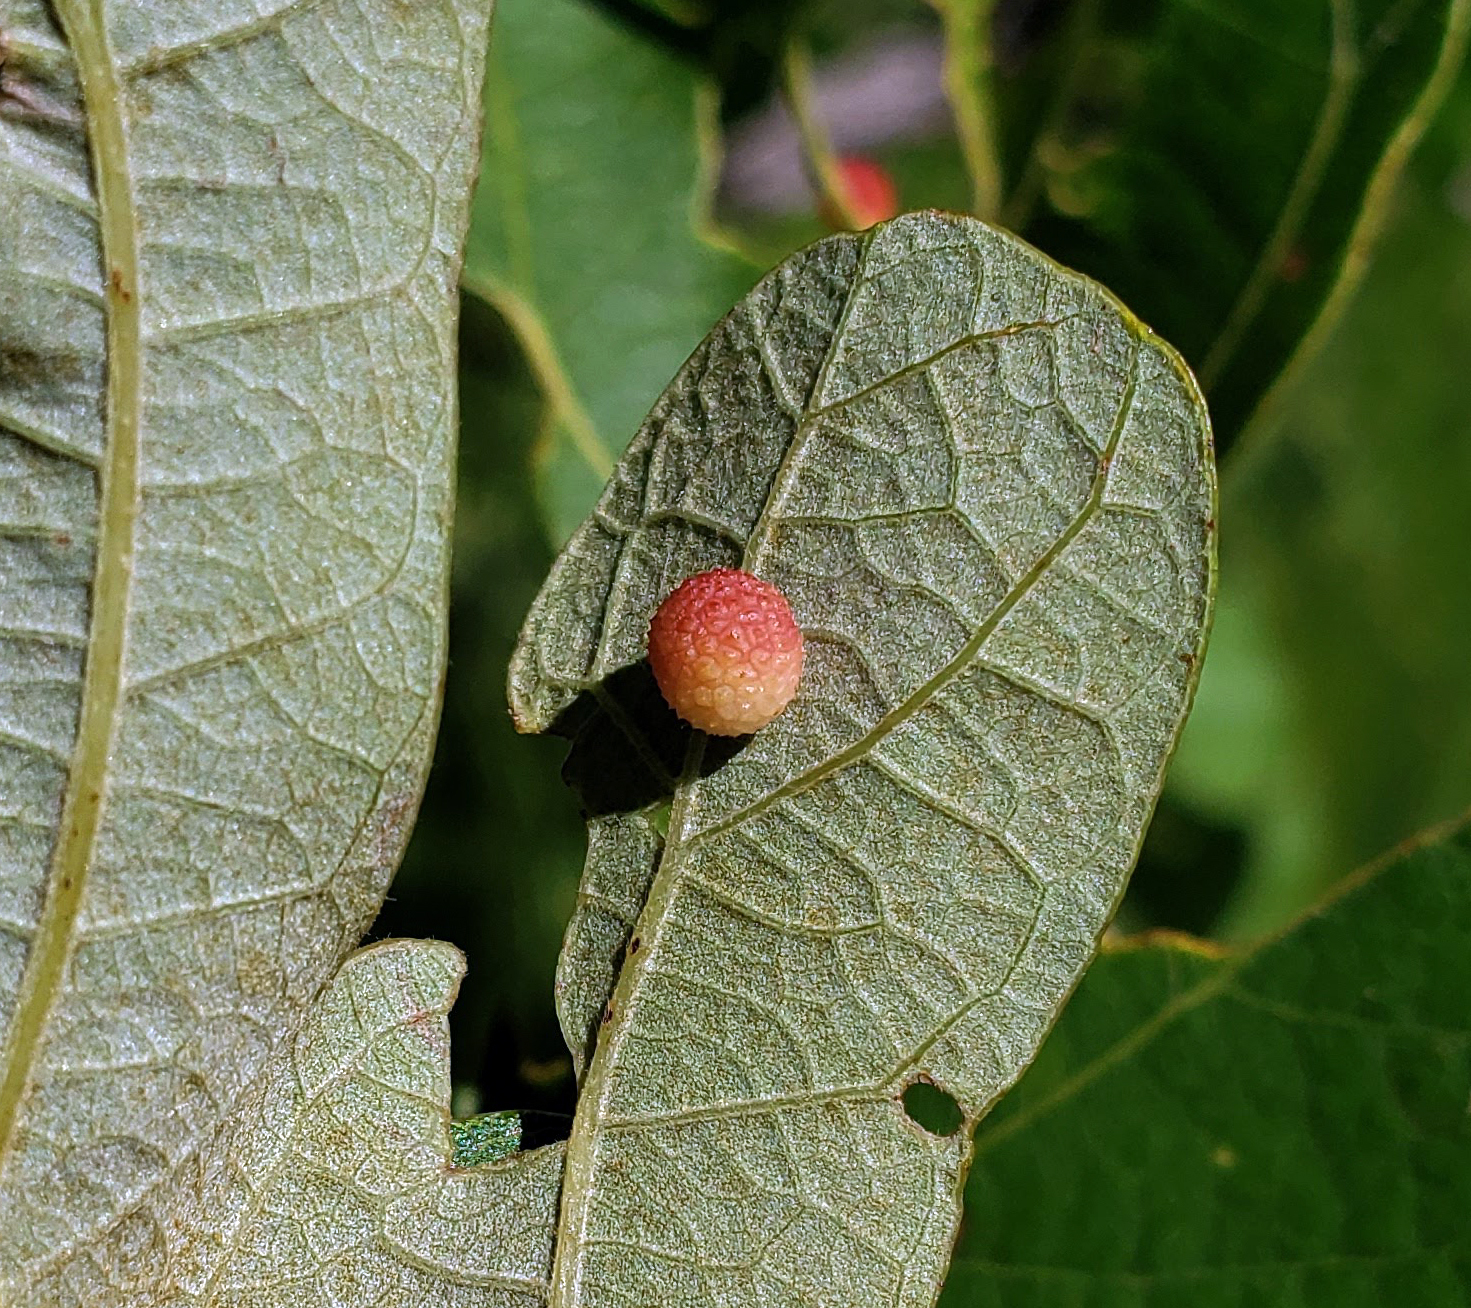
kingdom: Animalia
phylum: Arthropoda
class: Insecta
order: Hymenoptera
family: Cynipidae
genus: Acraspis
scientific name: Acraspis quercushirta
